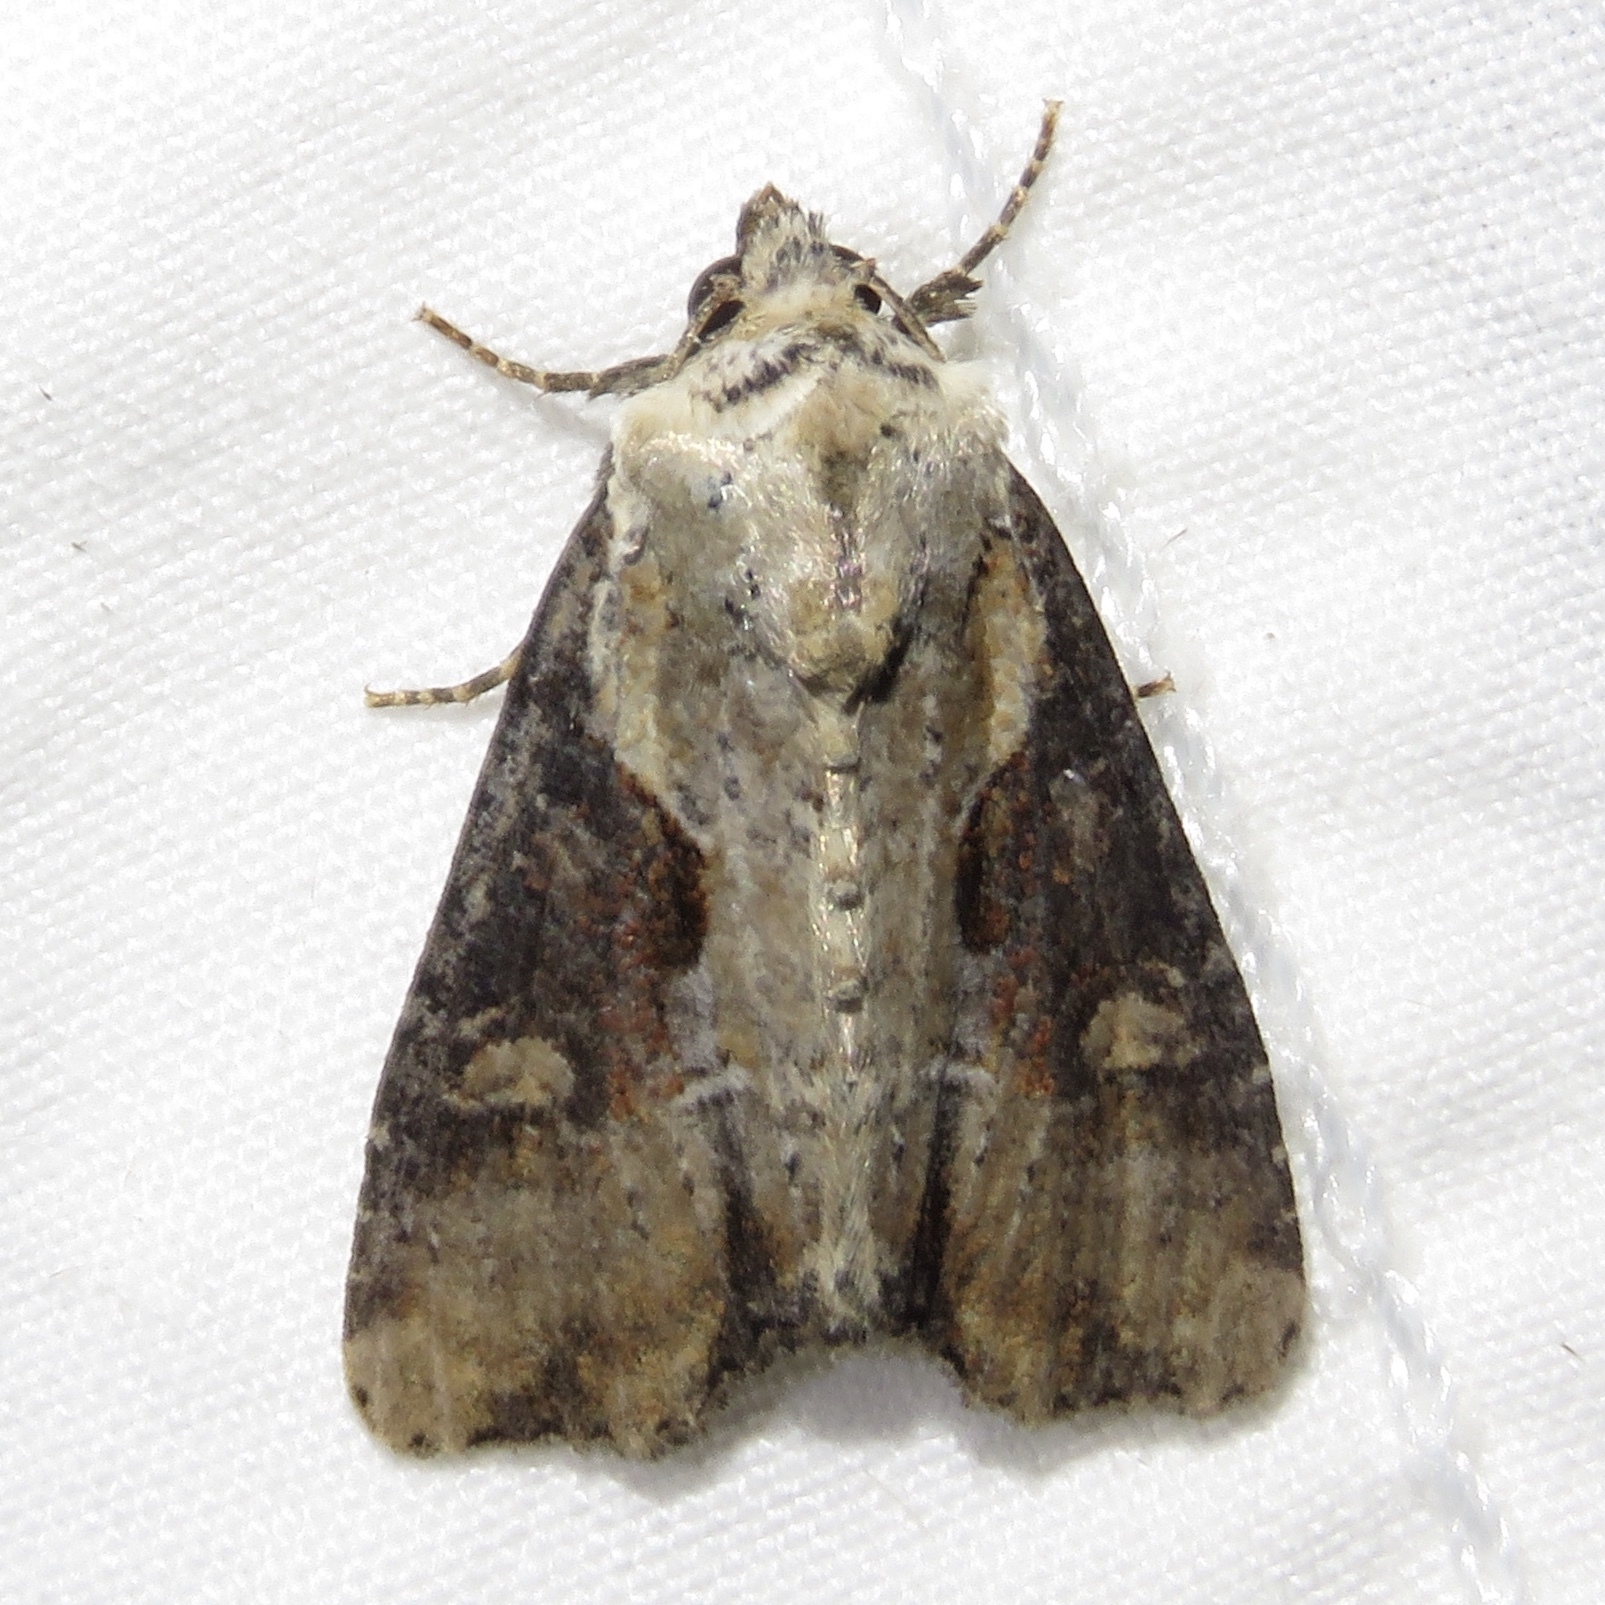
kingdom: Animalia
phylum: Arthropoda
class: Insecta
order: Lepidoptera
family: Noctuidae
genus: Lateroligia
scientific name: Lateroligia ophiogramma
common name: Double lobed
